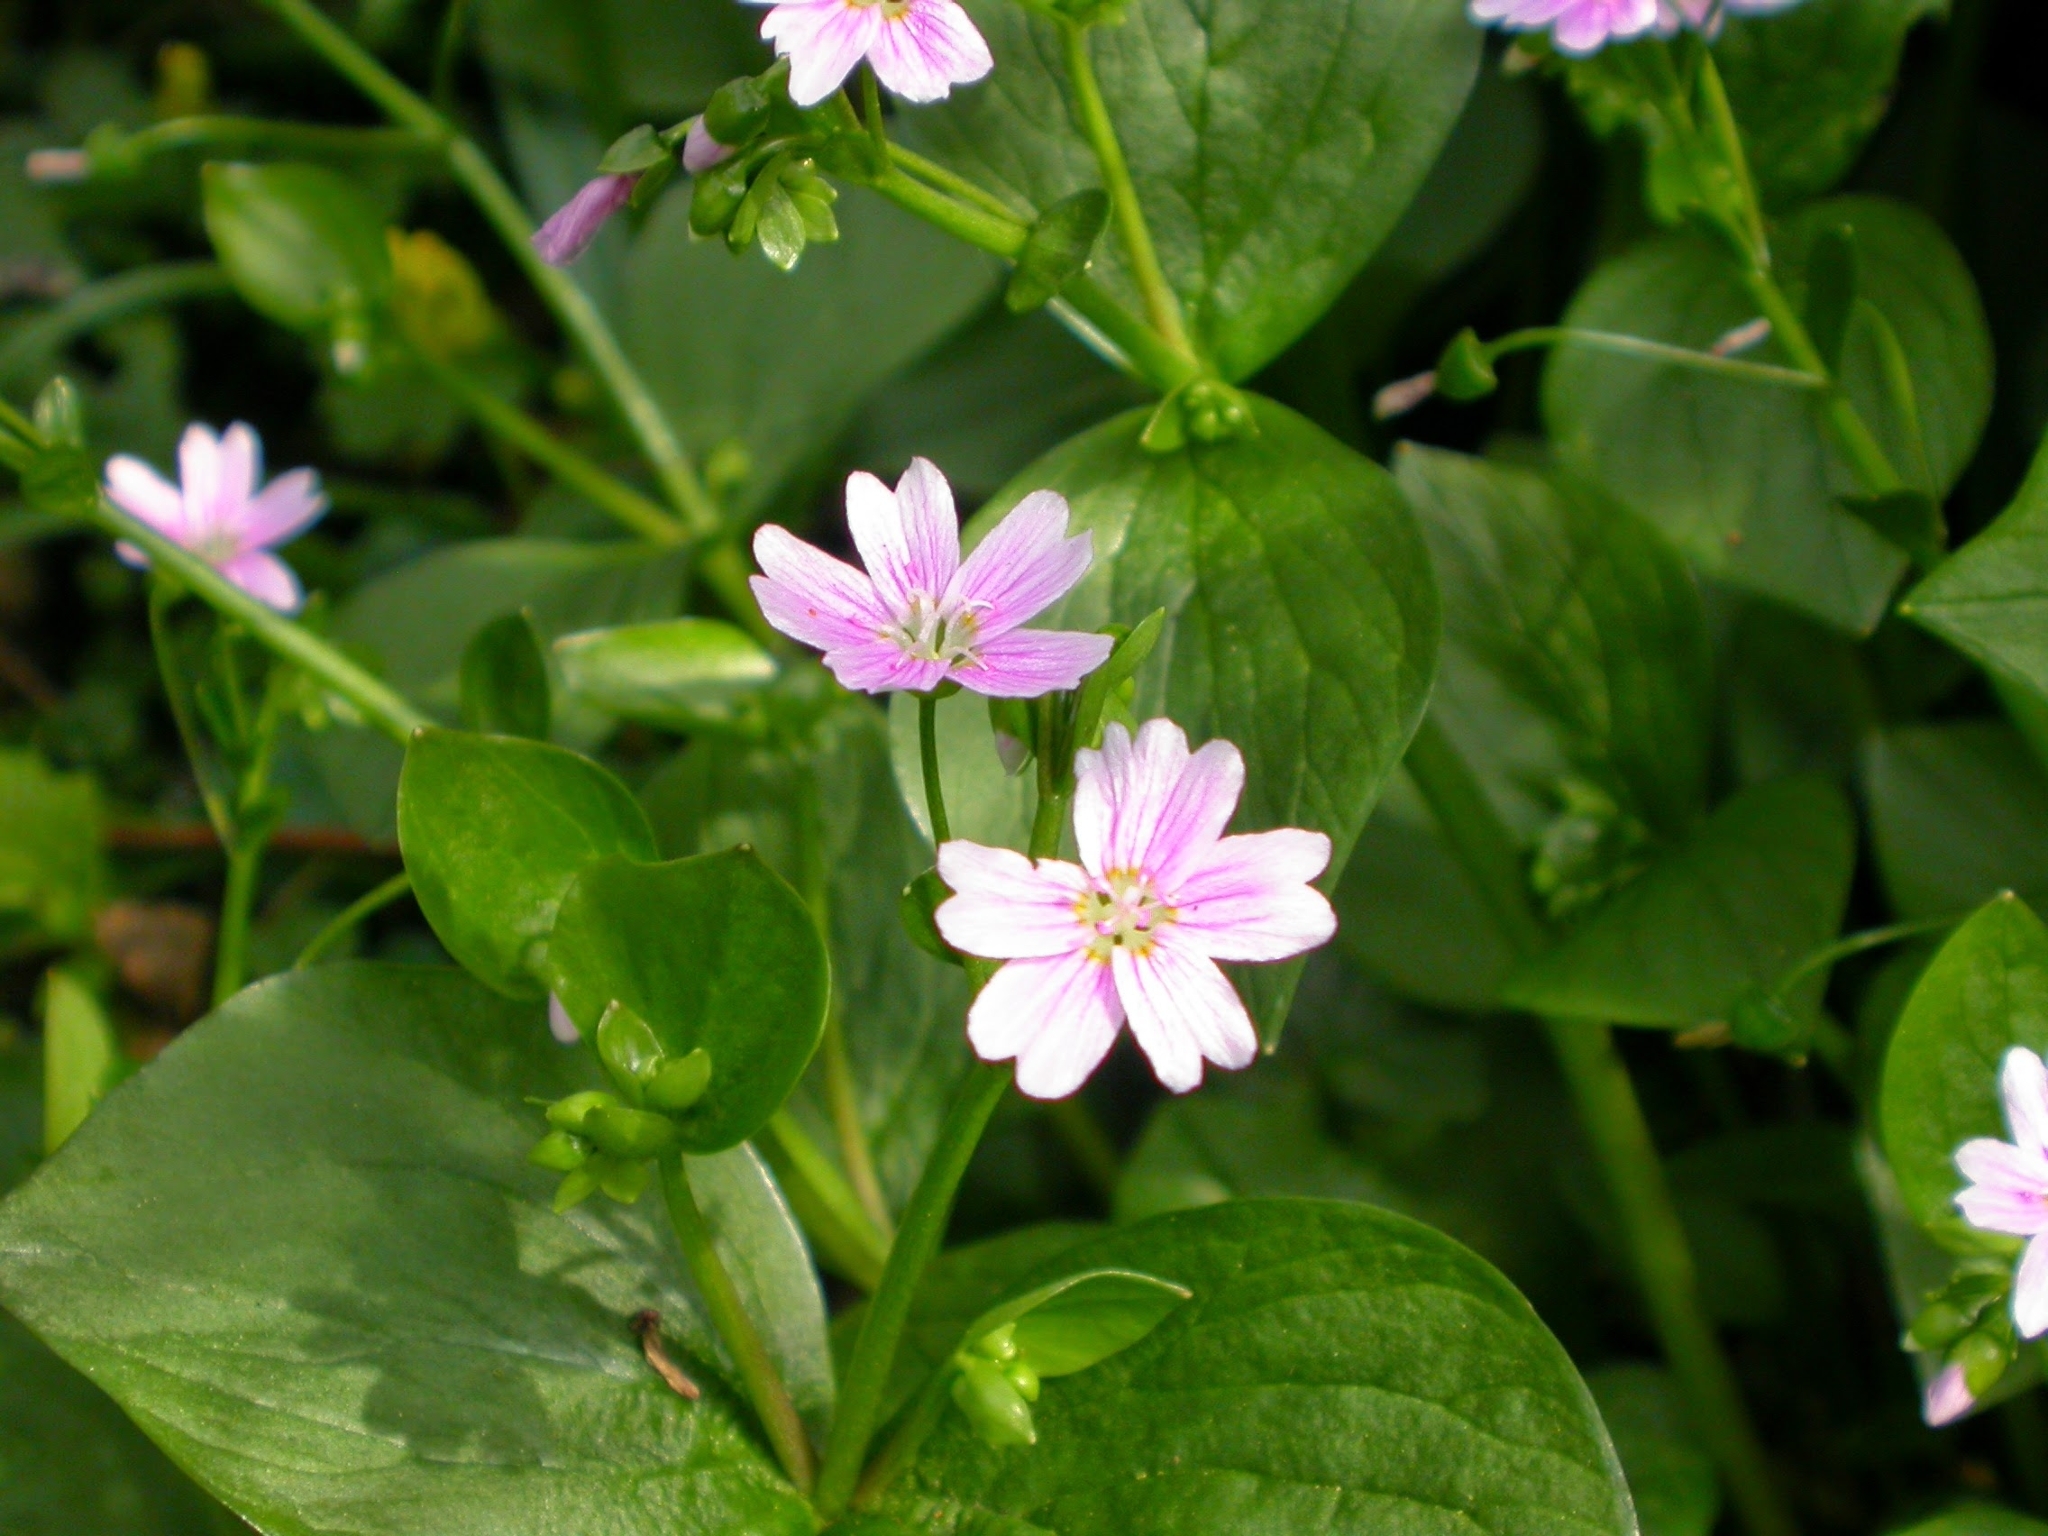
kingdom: Plantae
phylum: Tracheophyta
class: Magnoliopsida
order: Caryophyllales
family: Montiaceae
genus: Claytonia
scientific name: Claytonia sibirica
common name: Pink purslane
